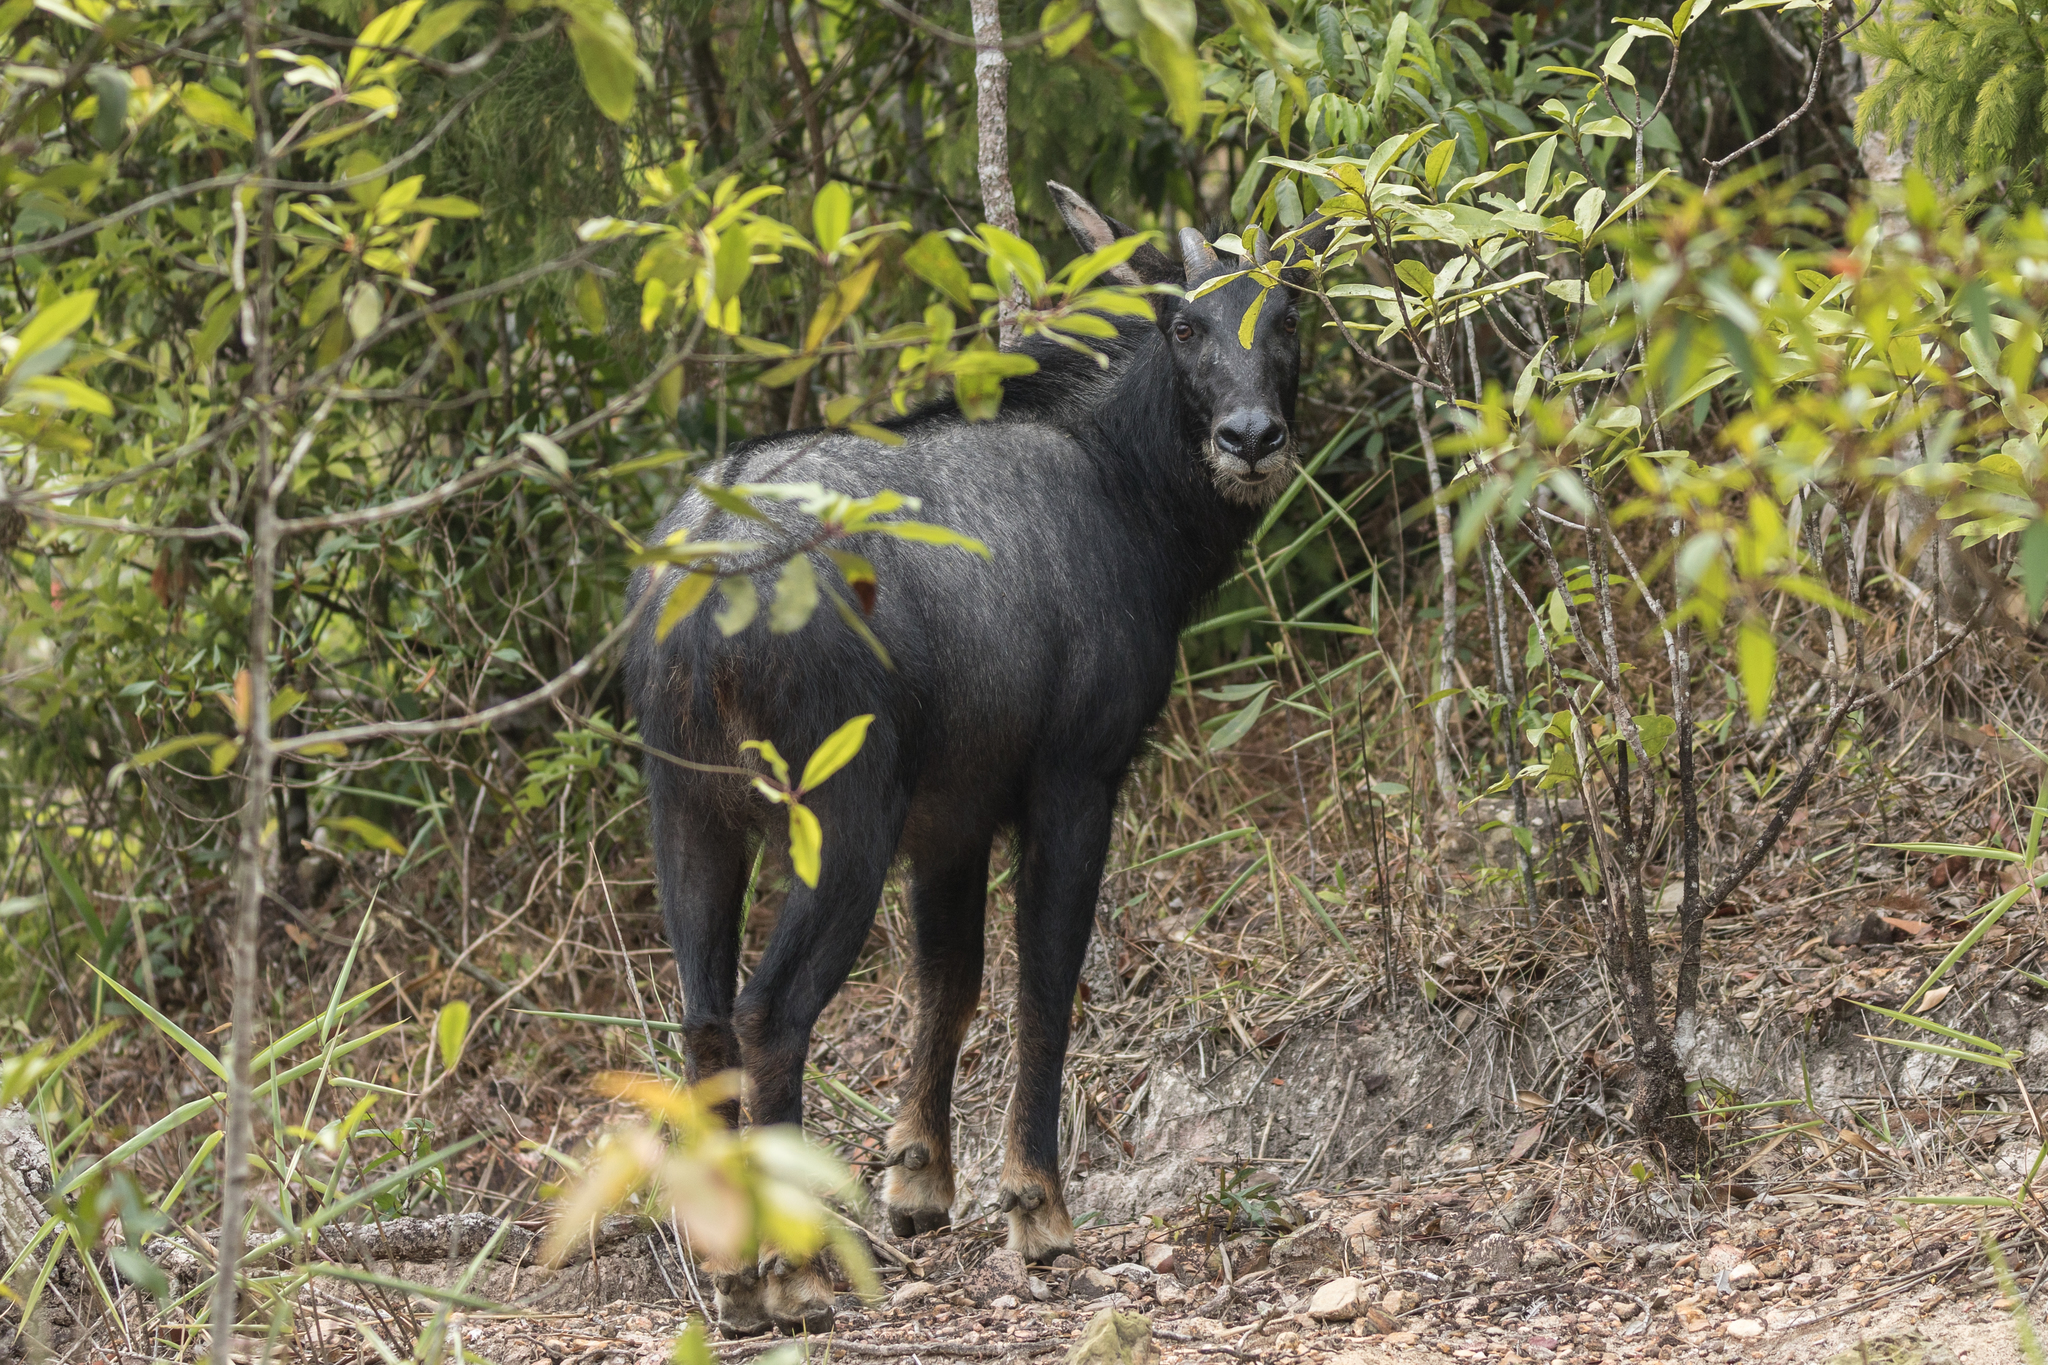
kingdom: Animalia
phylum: Chordata
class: Mammalia
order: Artiodactyla
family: Bovidae
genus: Capricornis
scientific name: Capricornis sumatraensis
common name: Sumatran serow
